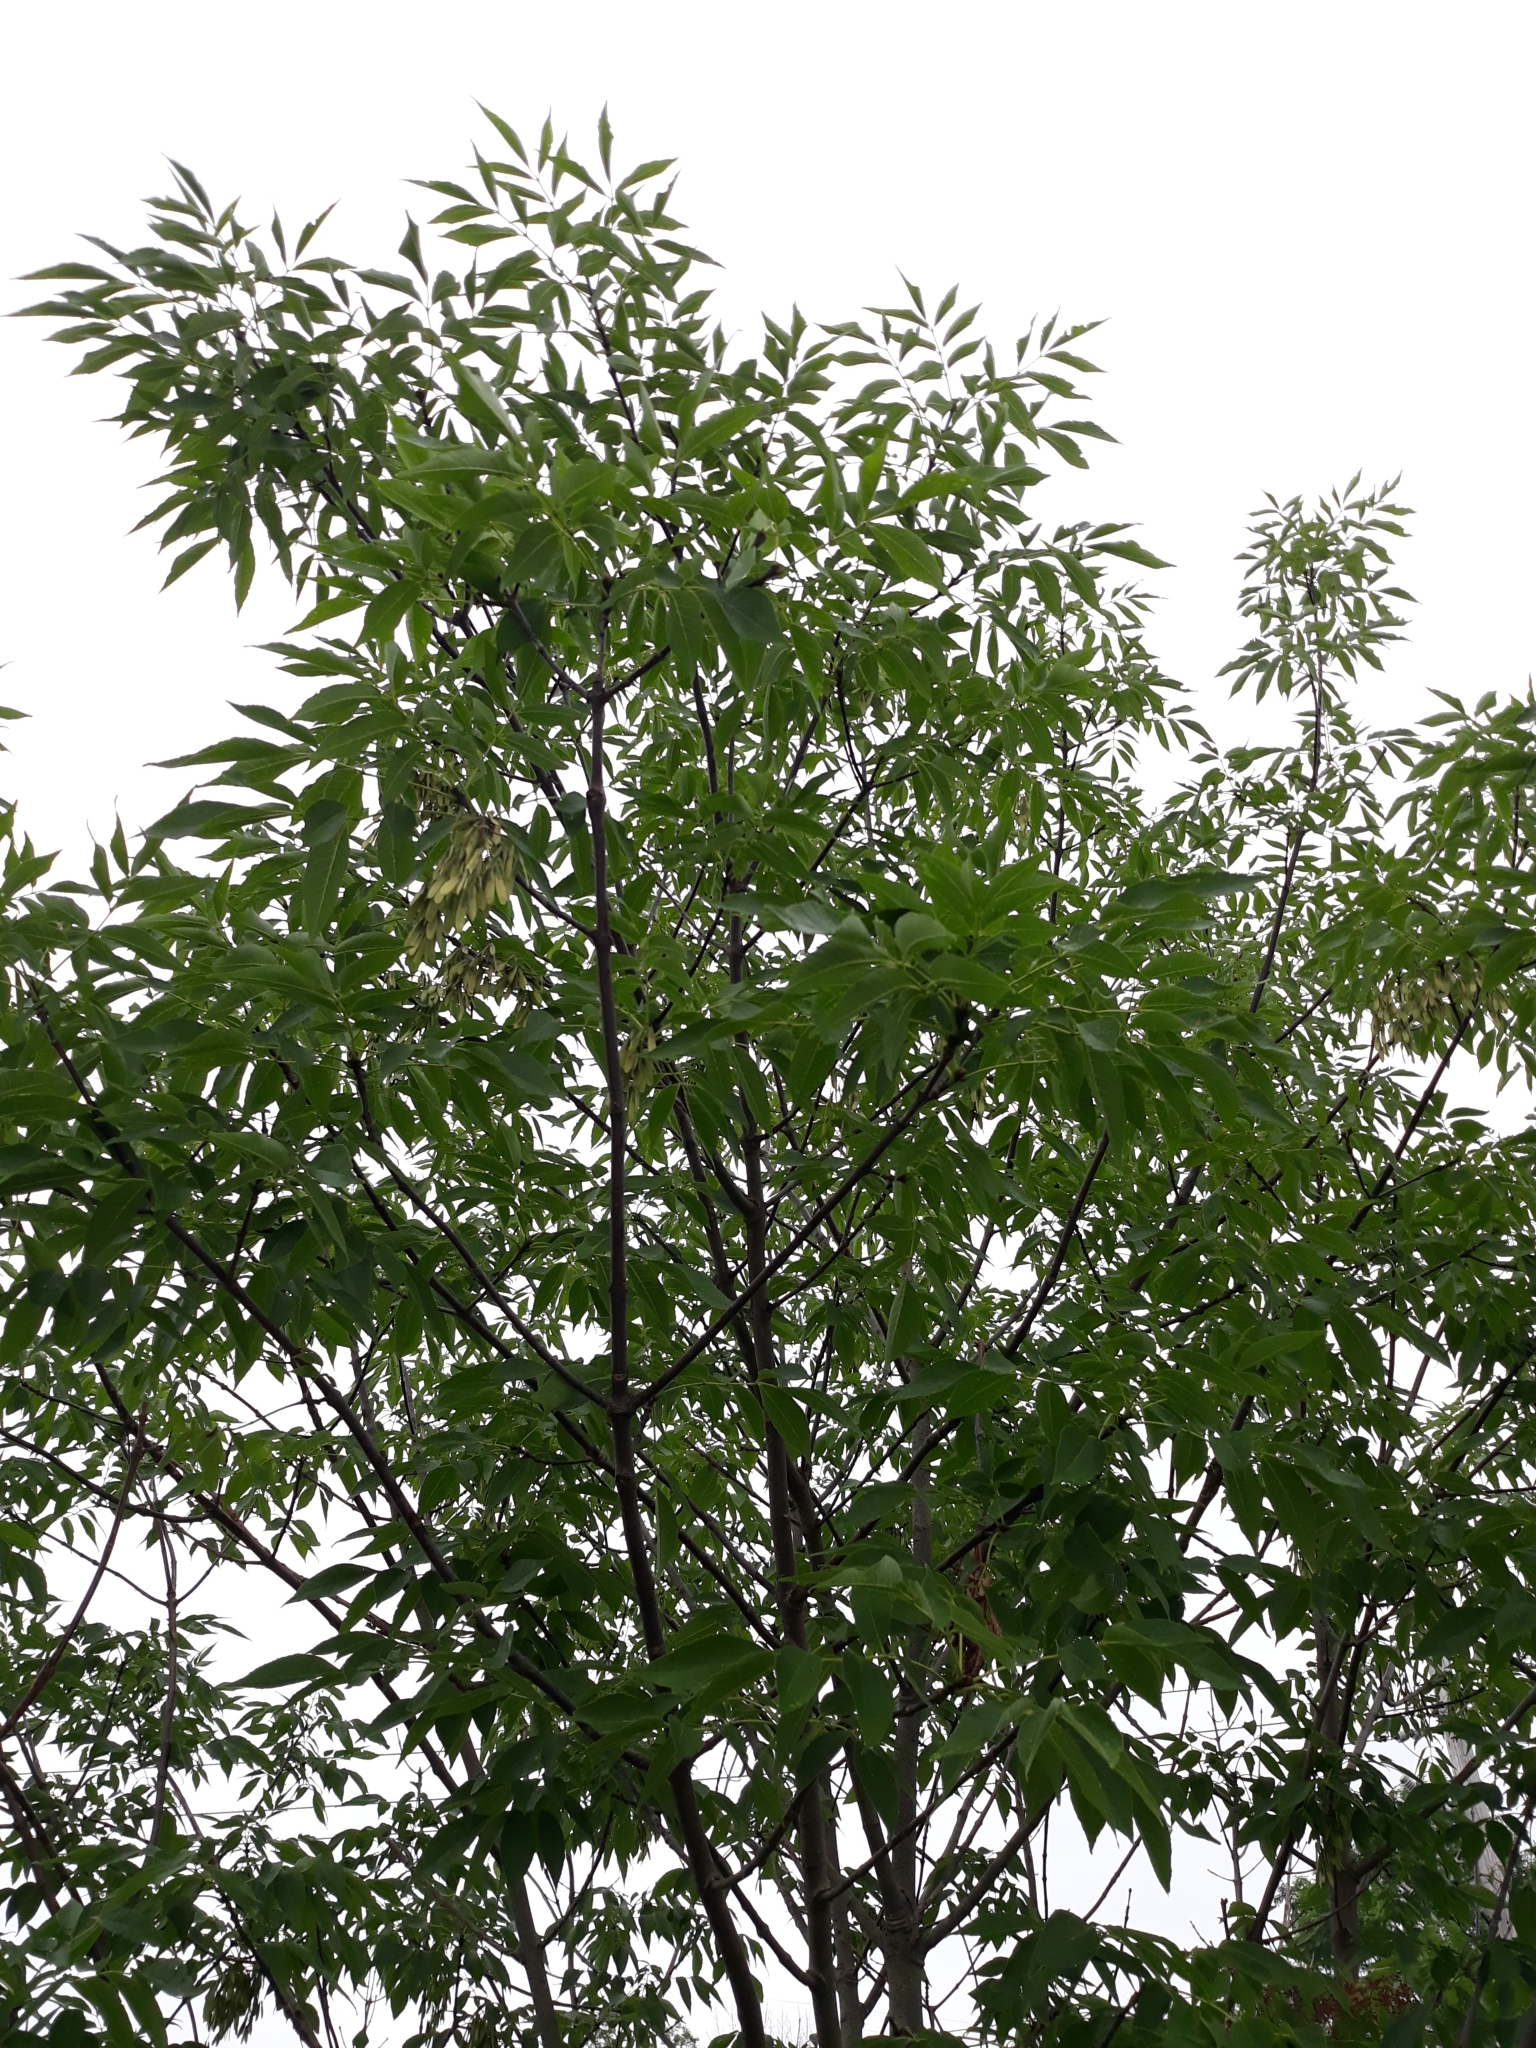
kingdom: Plantae
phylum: Tracheophyta
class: Magnoliopsida
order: Lamiales
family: Oleaceae
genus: Fraxinus
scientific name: Fraxinus pennsylvanica
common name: Green ash
